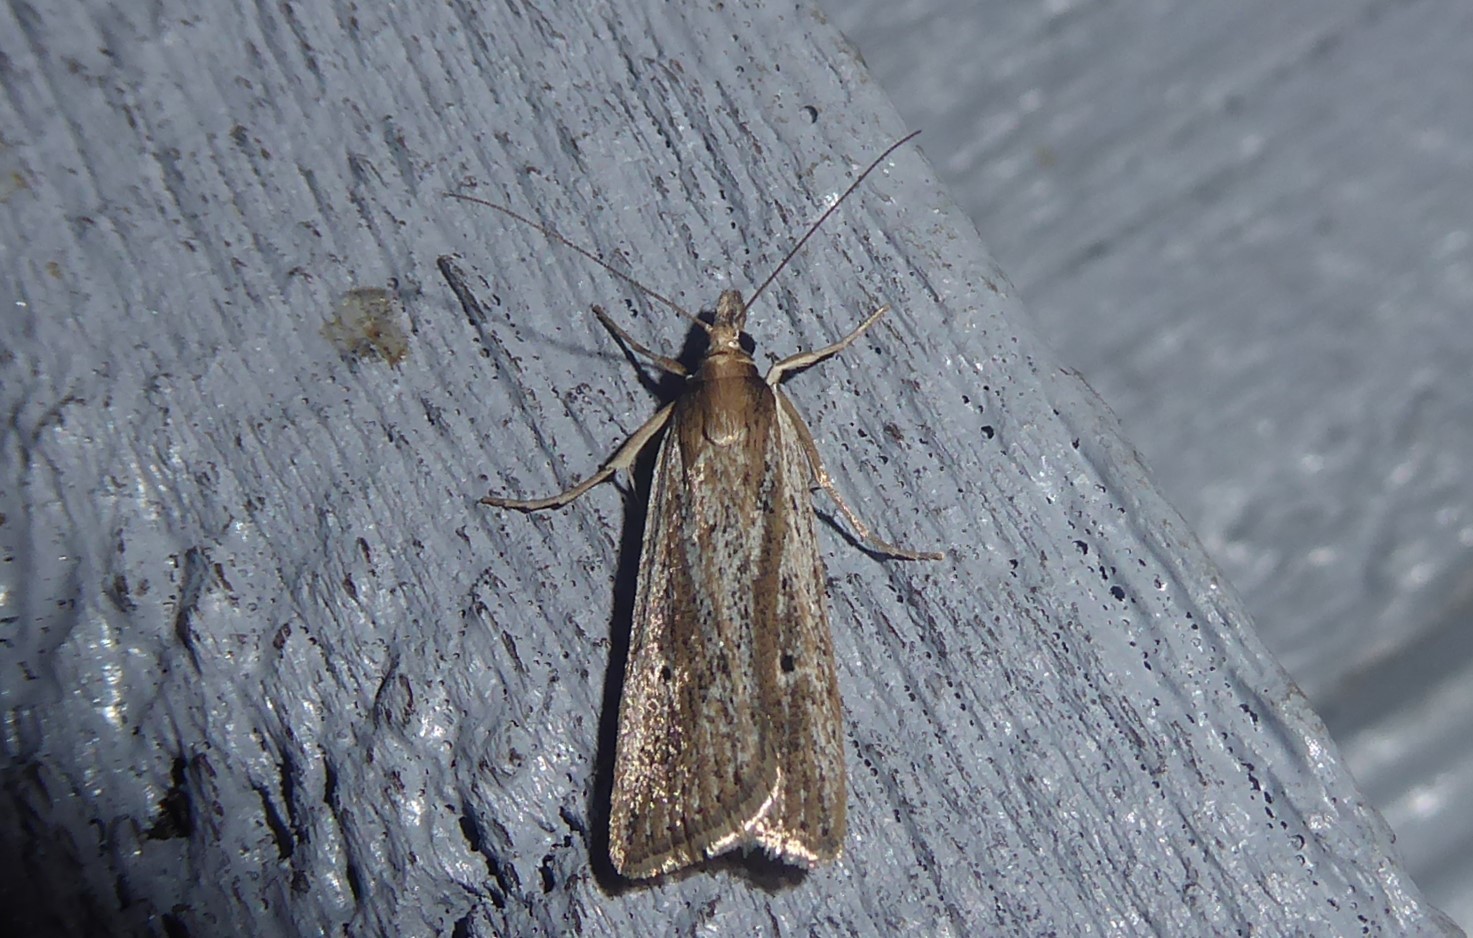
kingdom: Animalia
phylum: Arthropoda
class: Insecta
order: Lepidoptera
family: Crambidae
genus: Eudonia
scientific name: Eudonia sabulosella
